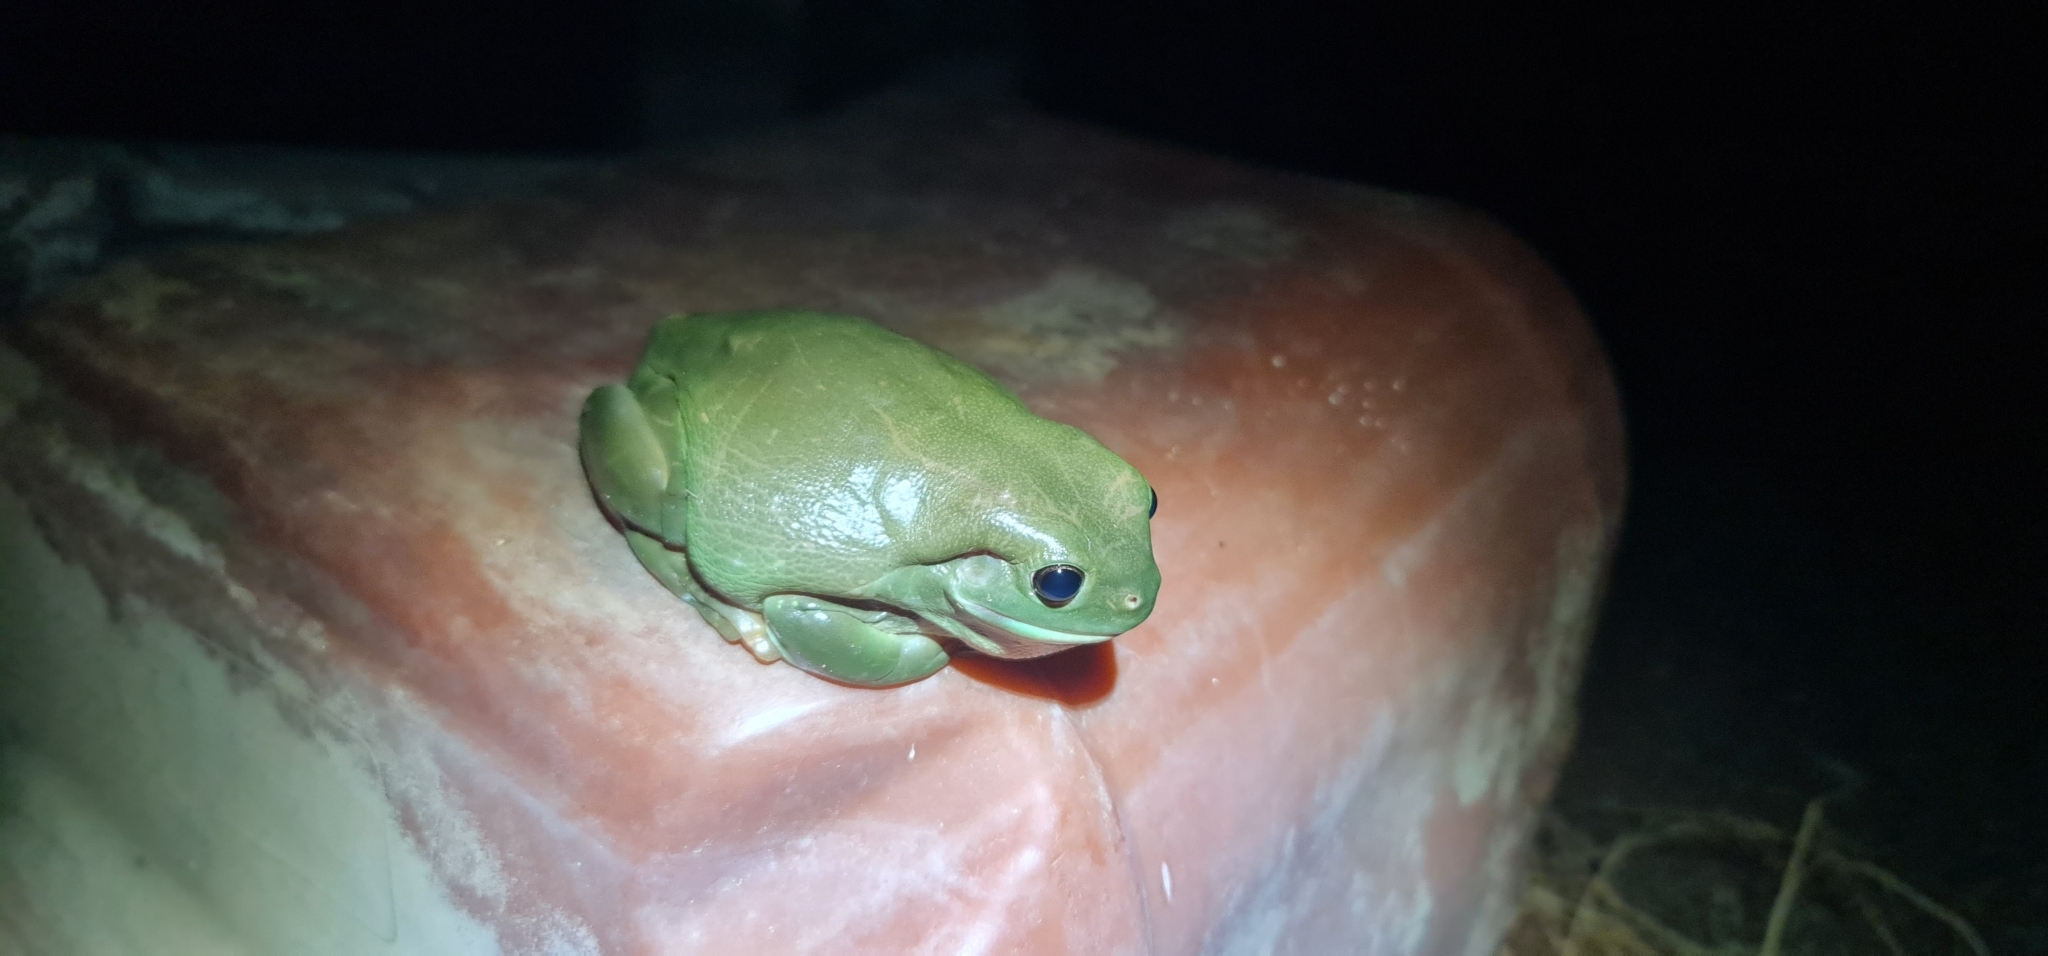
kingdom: Animalia
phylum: Chordata
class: Amphibia
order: Anura
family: Pelodryadidae
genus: Ranoidea
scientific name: Ranoidea caerulea
